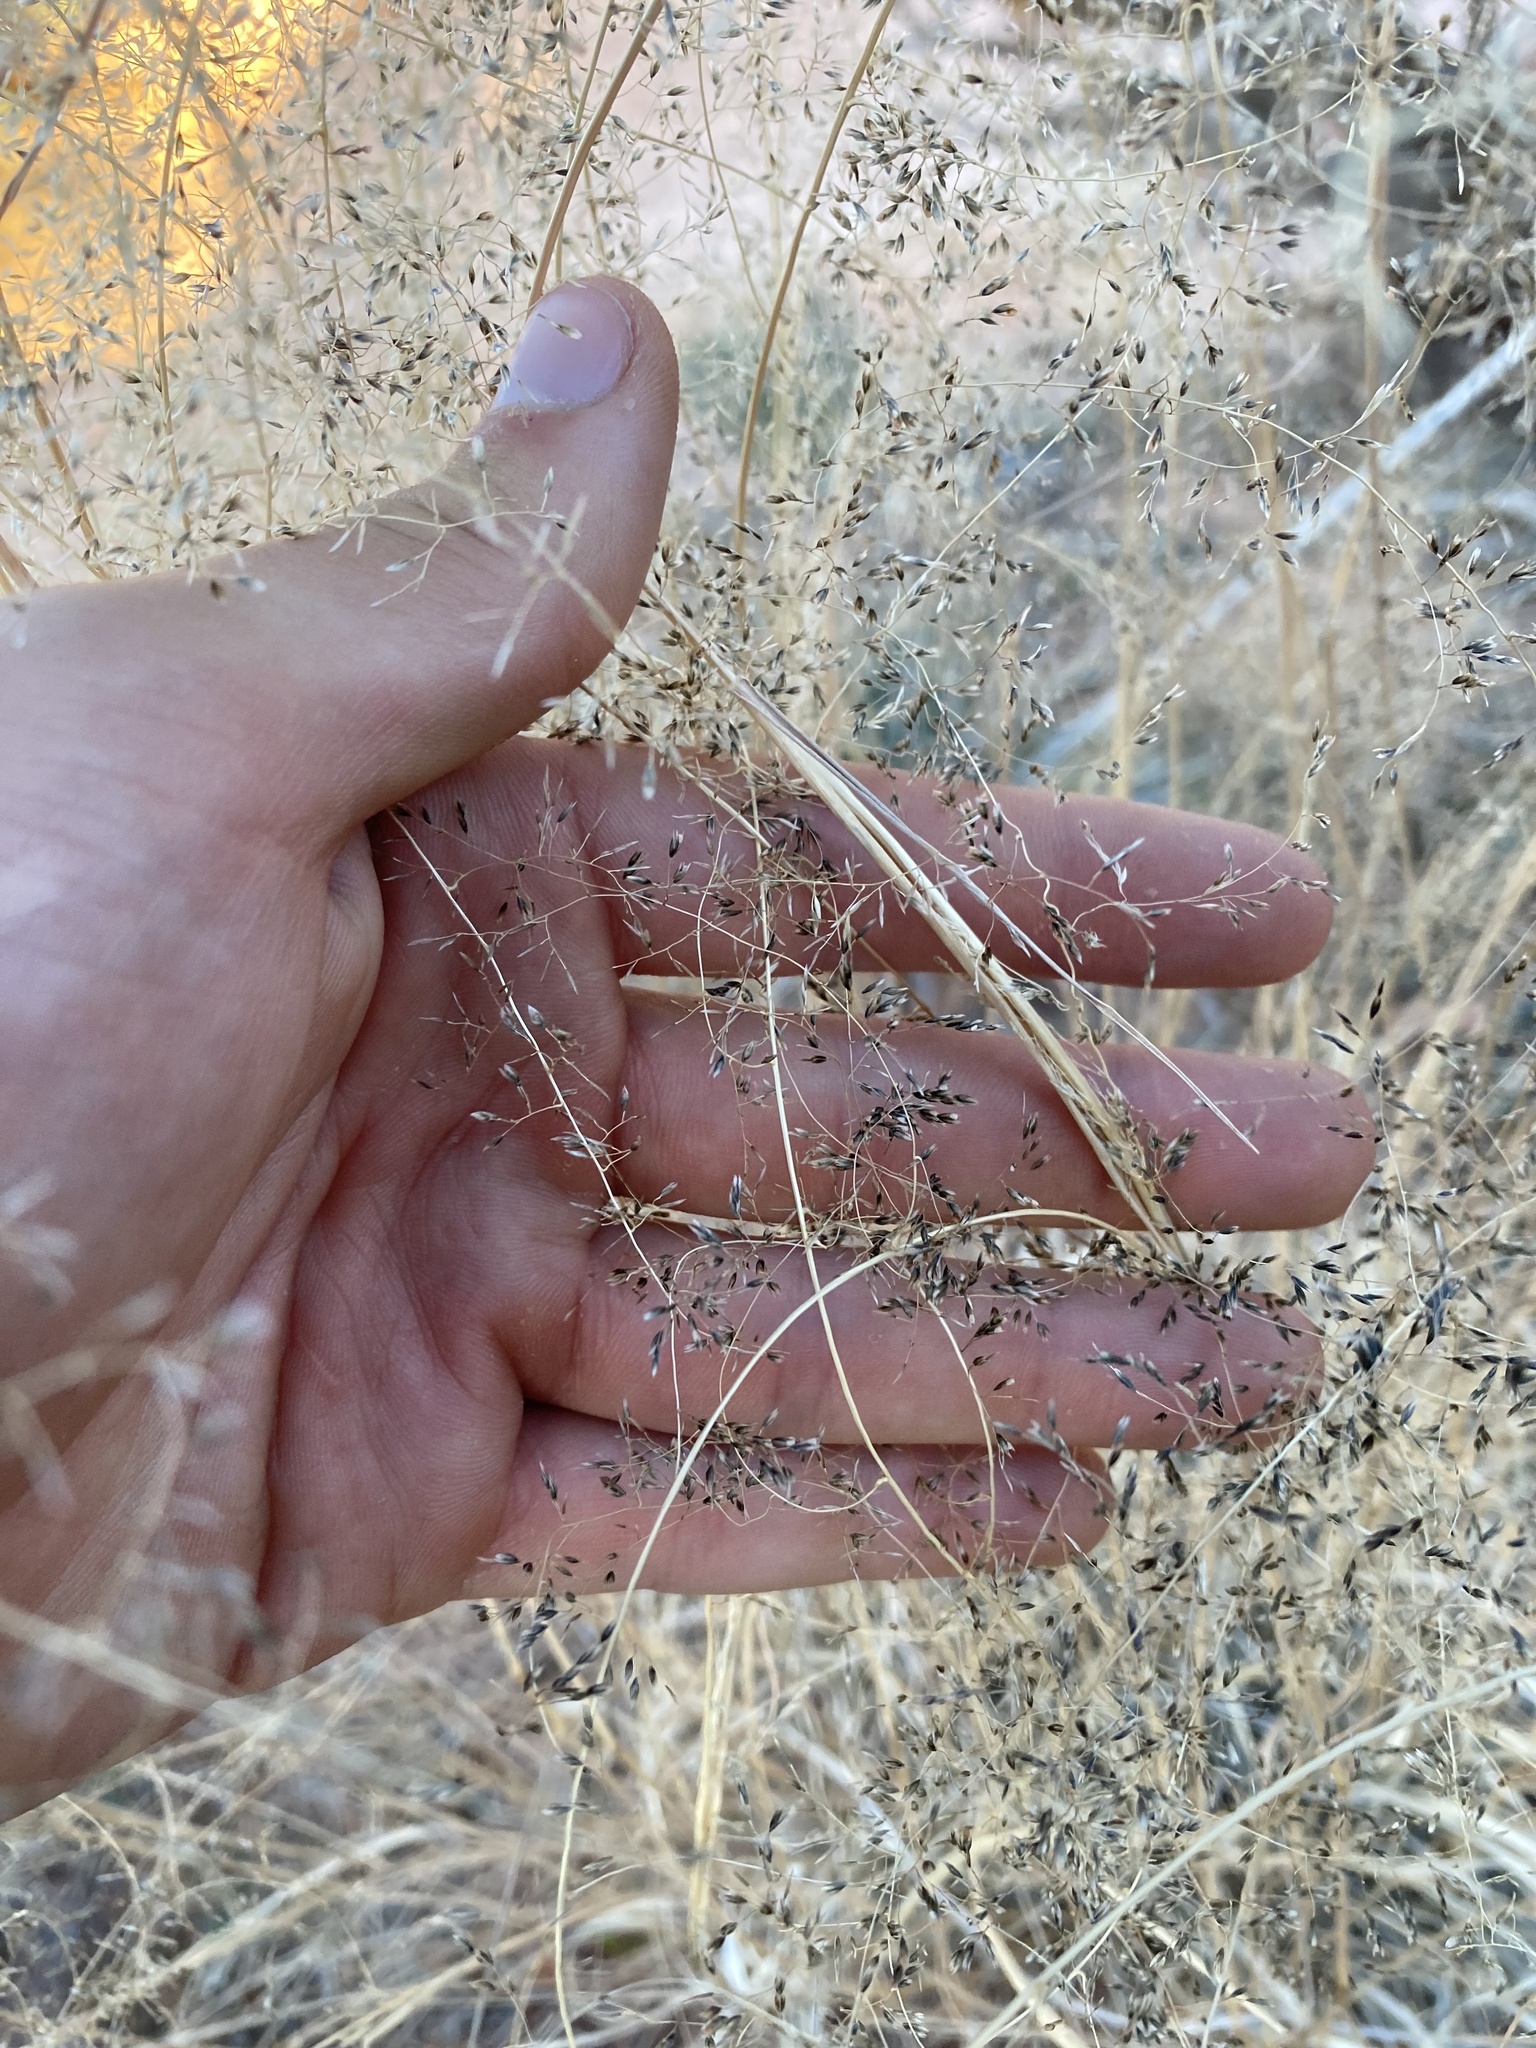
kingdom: Plantae
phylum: Tracheophyta
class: Liliopsida
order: Poales
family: Poaceae
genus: Sporobolus
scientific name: Sporobolus airoides
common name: Alkali sacaton
